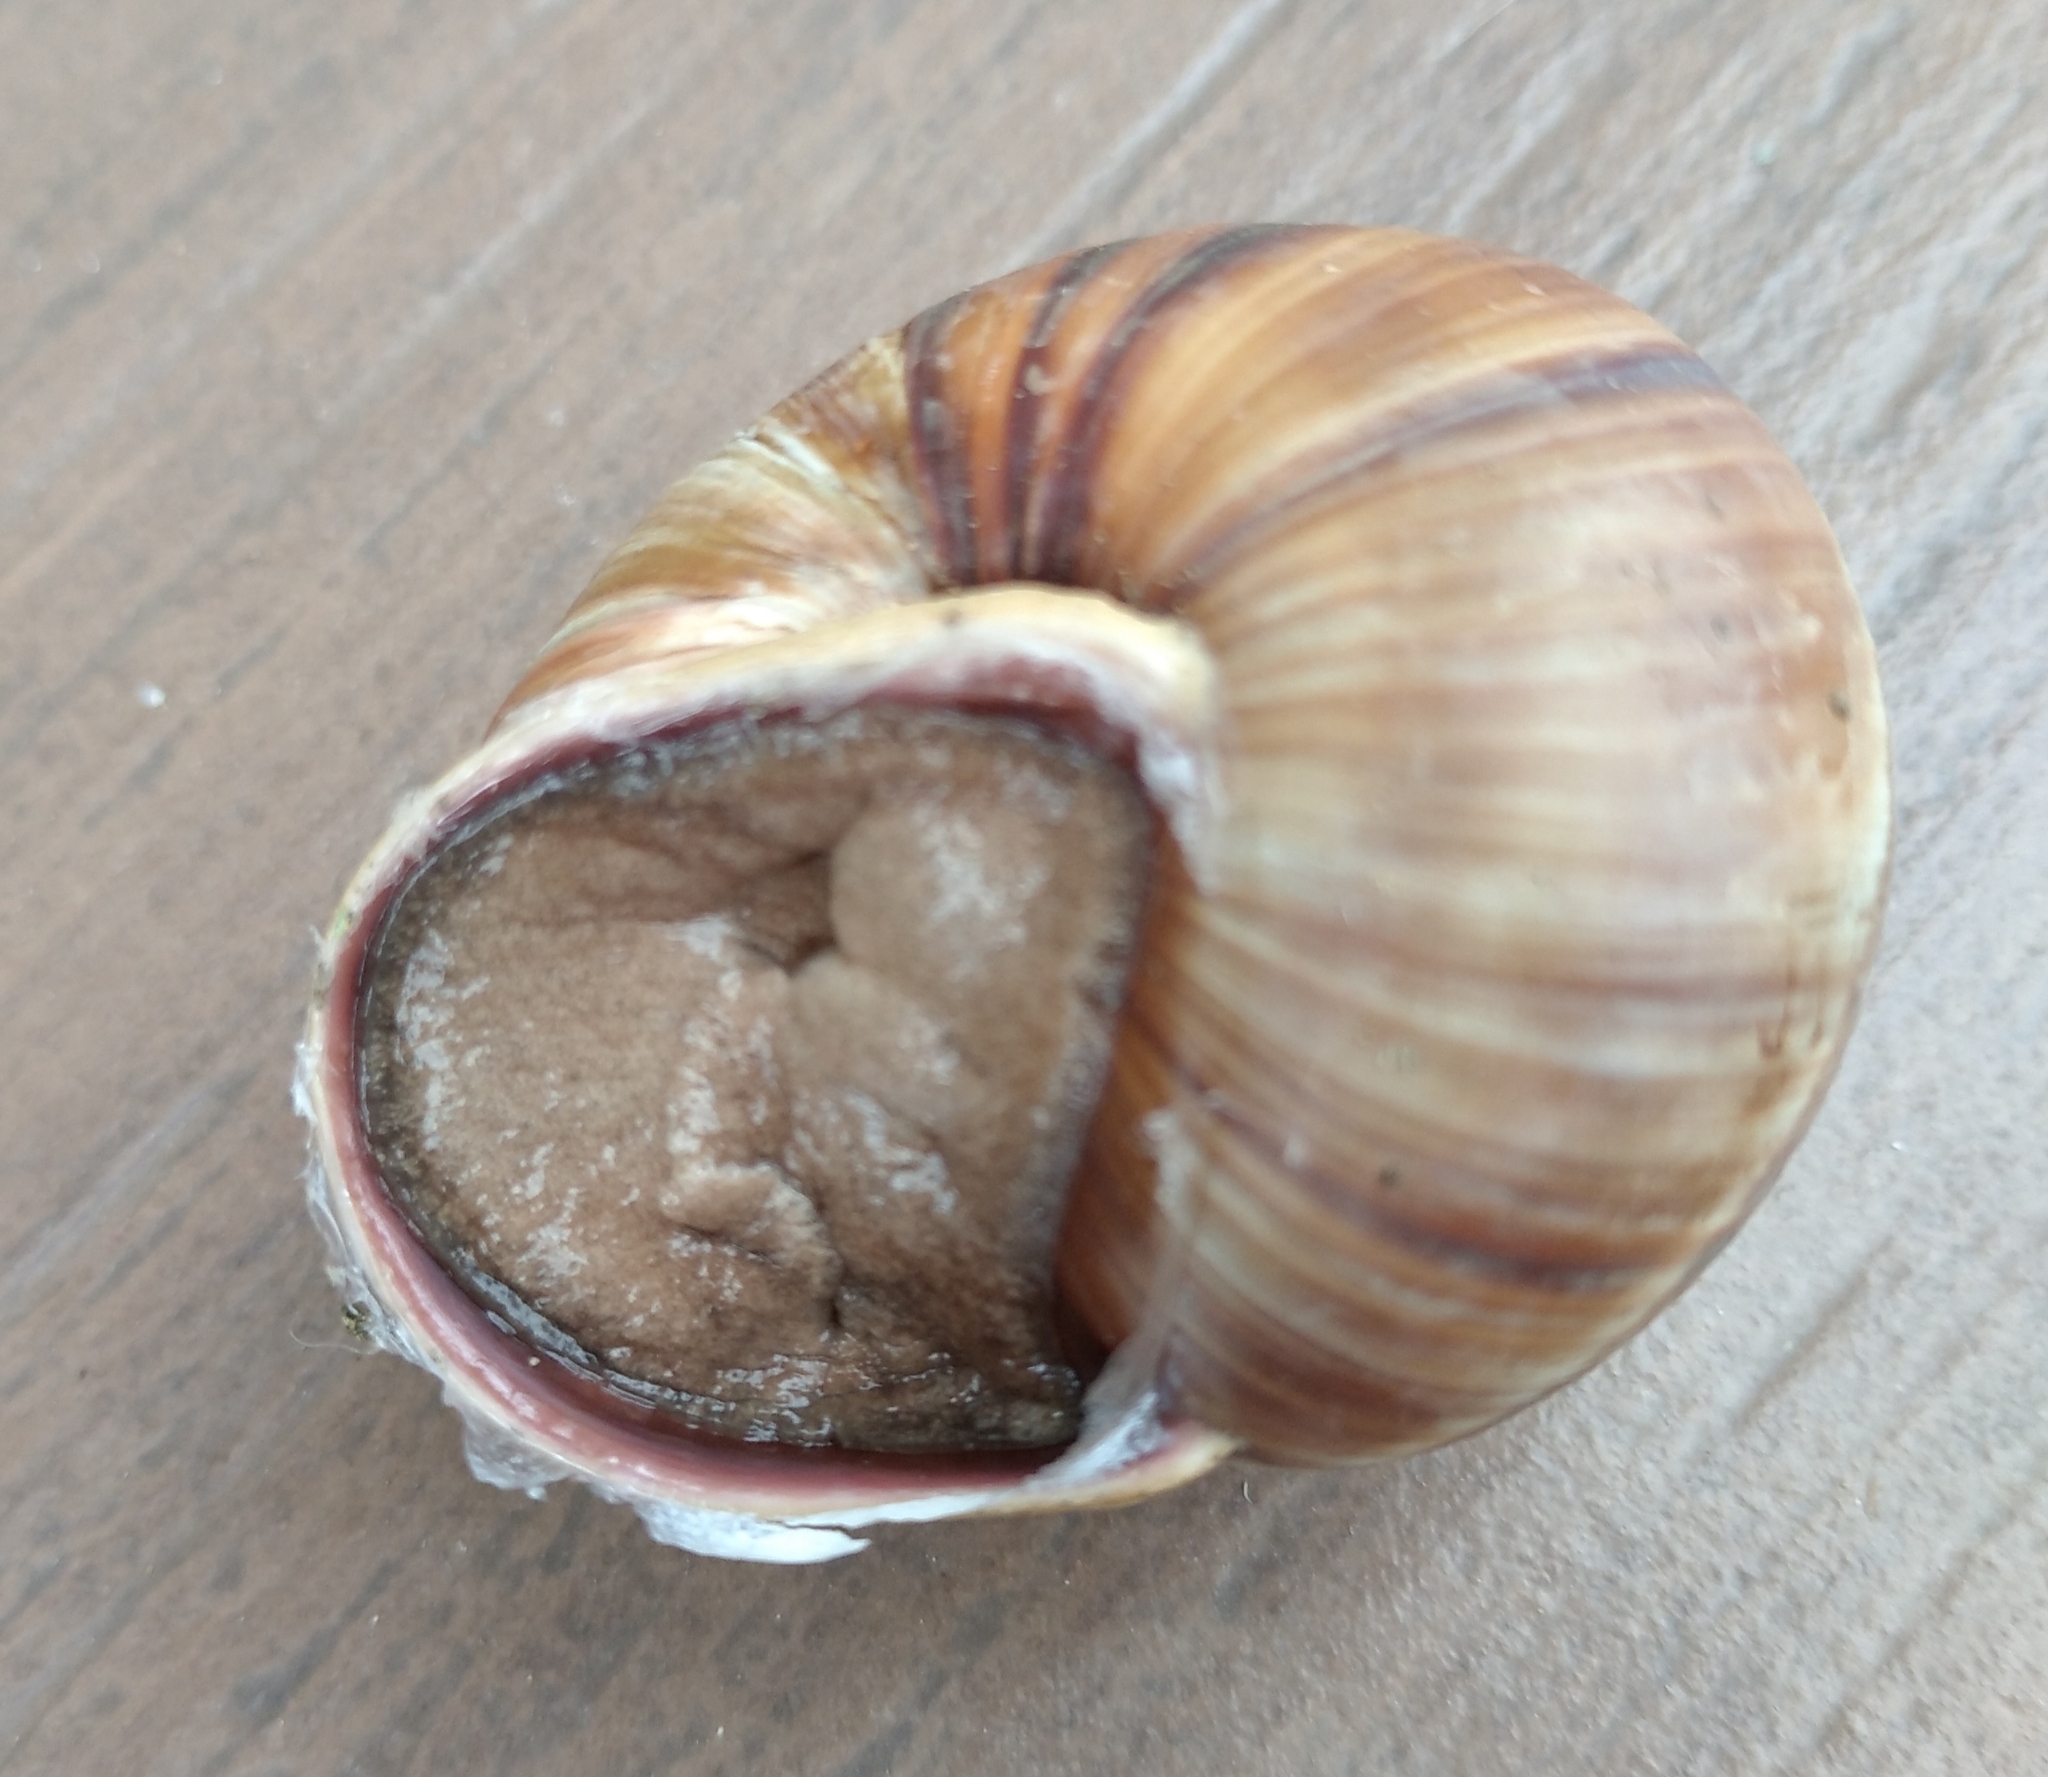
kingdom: Animalia
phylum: Mollusca
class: Gastropoda
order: Stylommatophora
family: Helicidae
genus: Helix
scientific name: Helix lucorum
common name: Turkish snail
